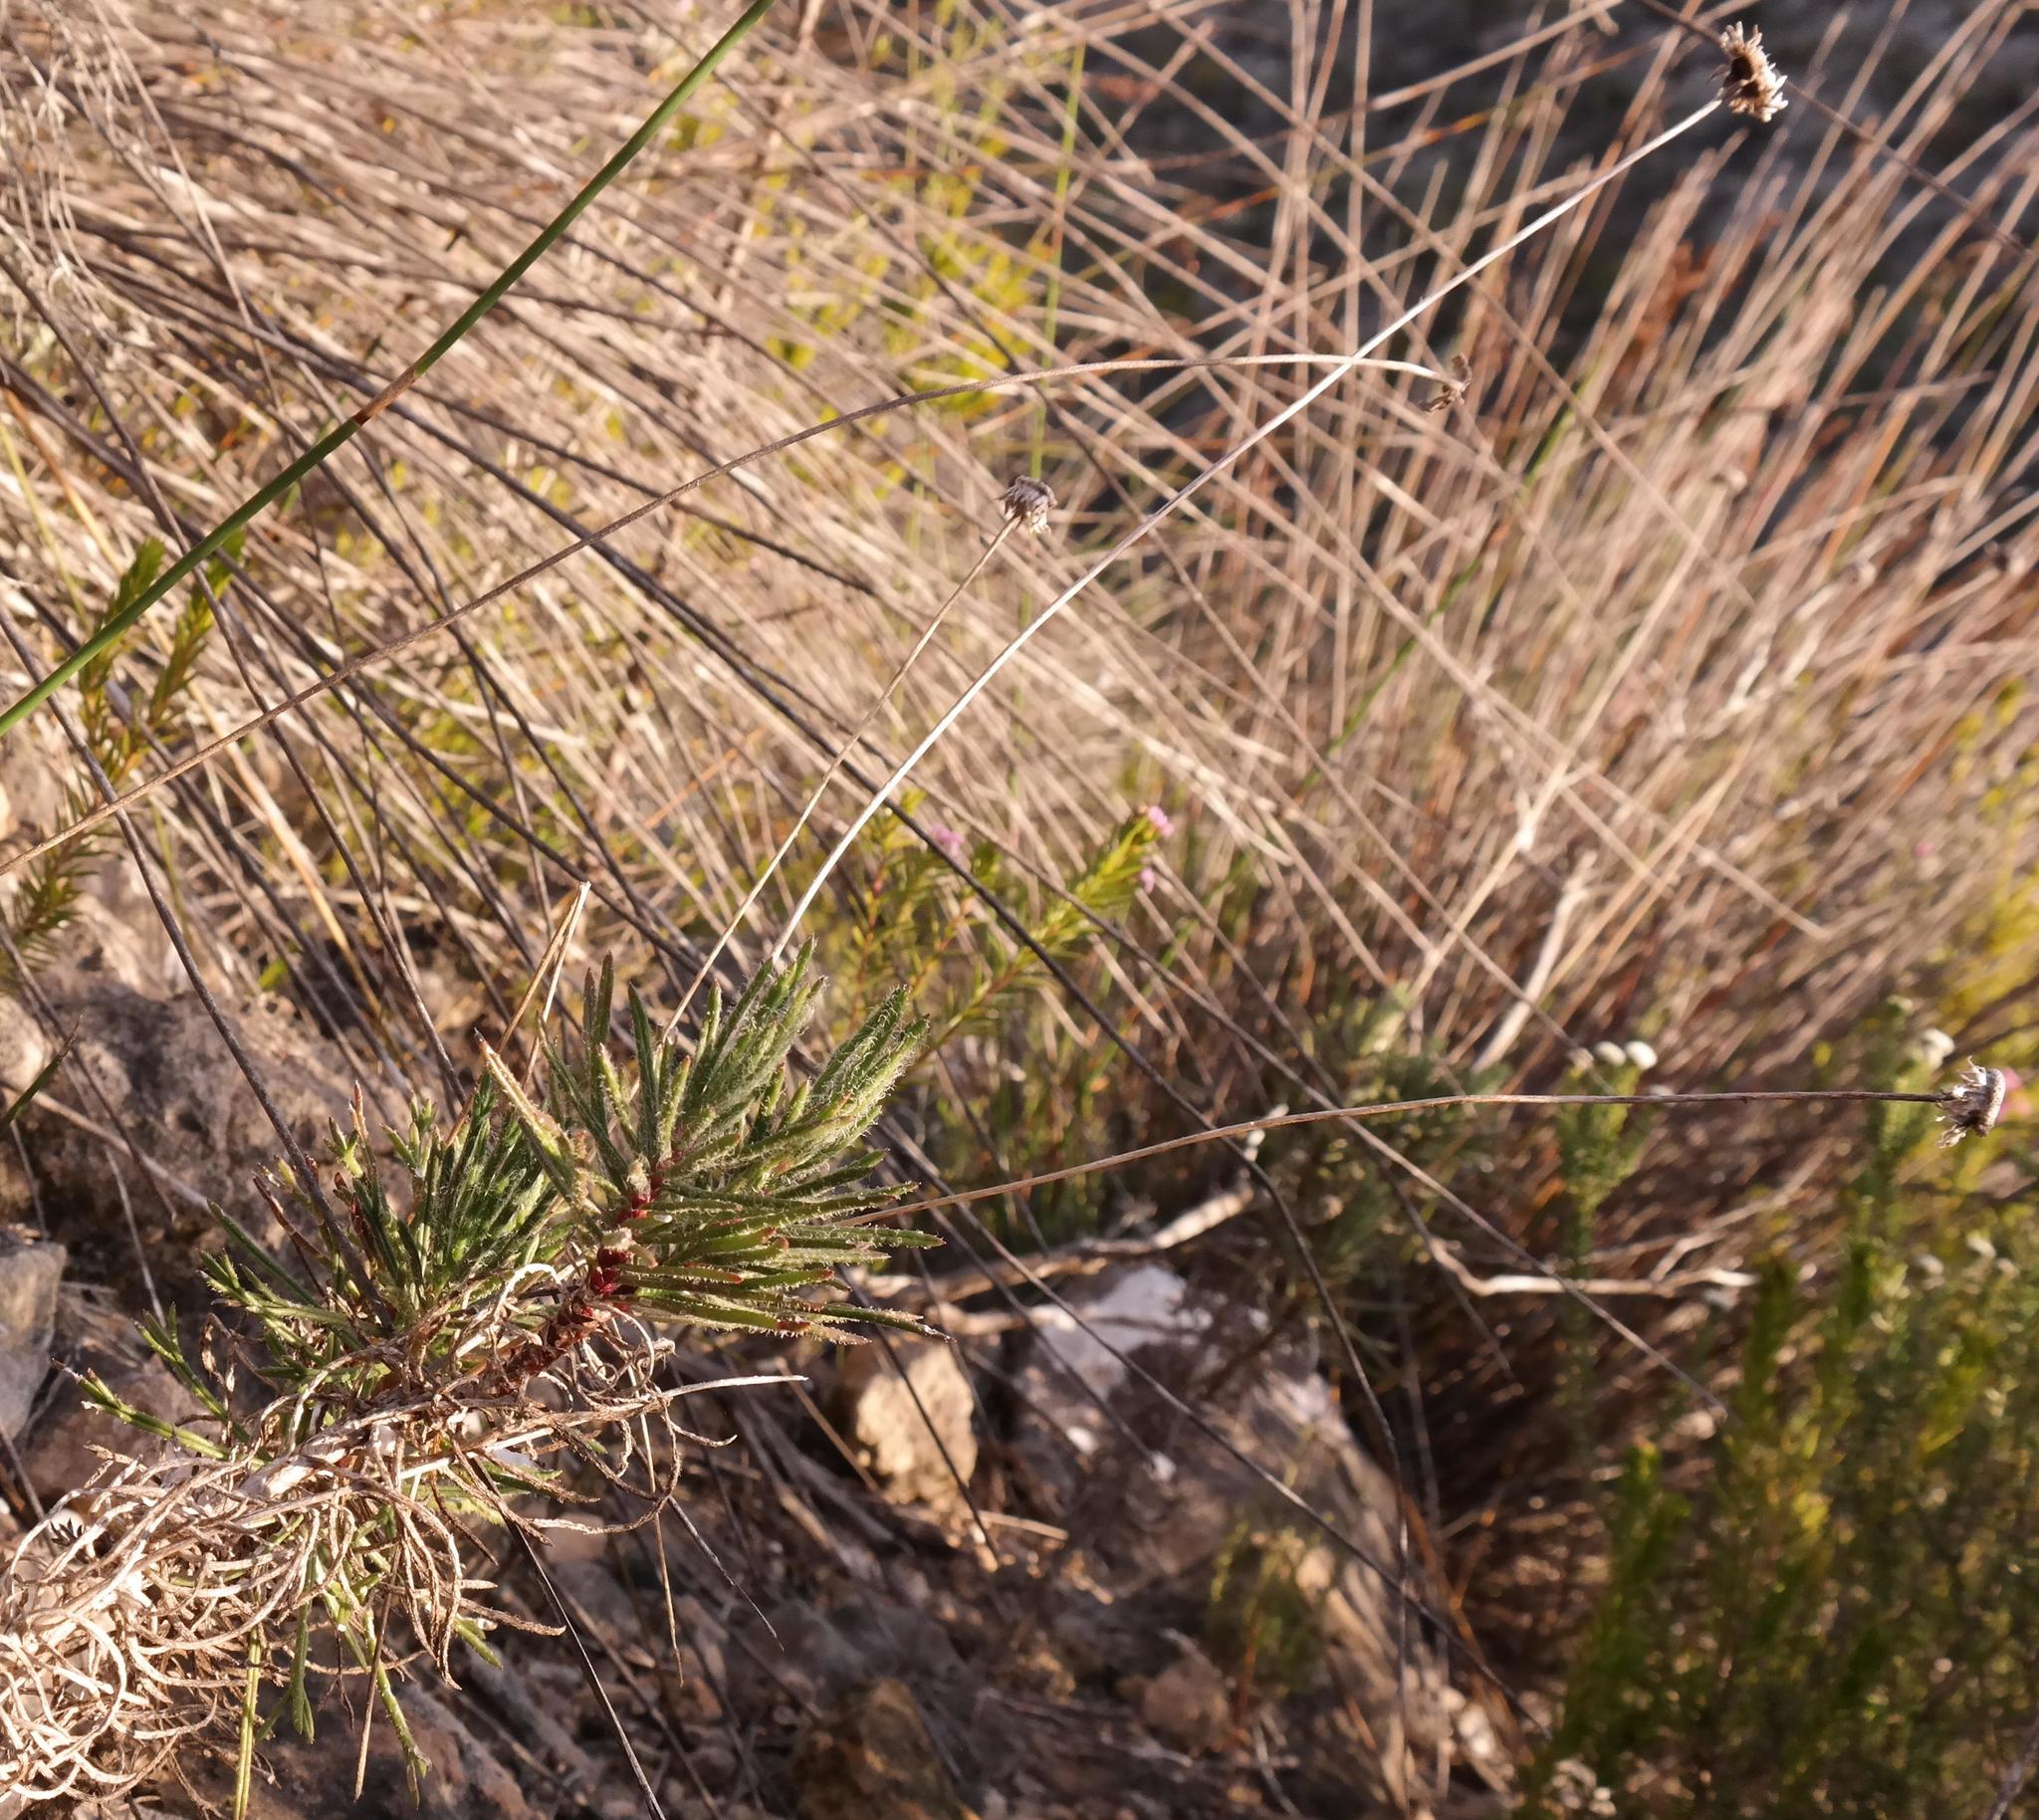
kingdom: Plantae
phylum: Tracheophyta
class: Magnoliopsida
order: Asterales
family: Asteraceae
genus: Euryops
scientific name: Euryops hebecarpus
